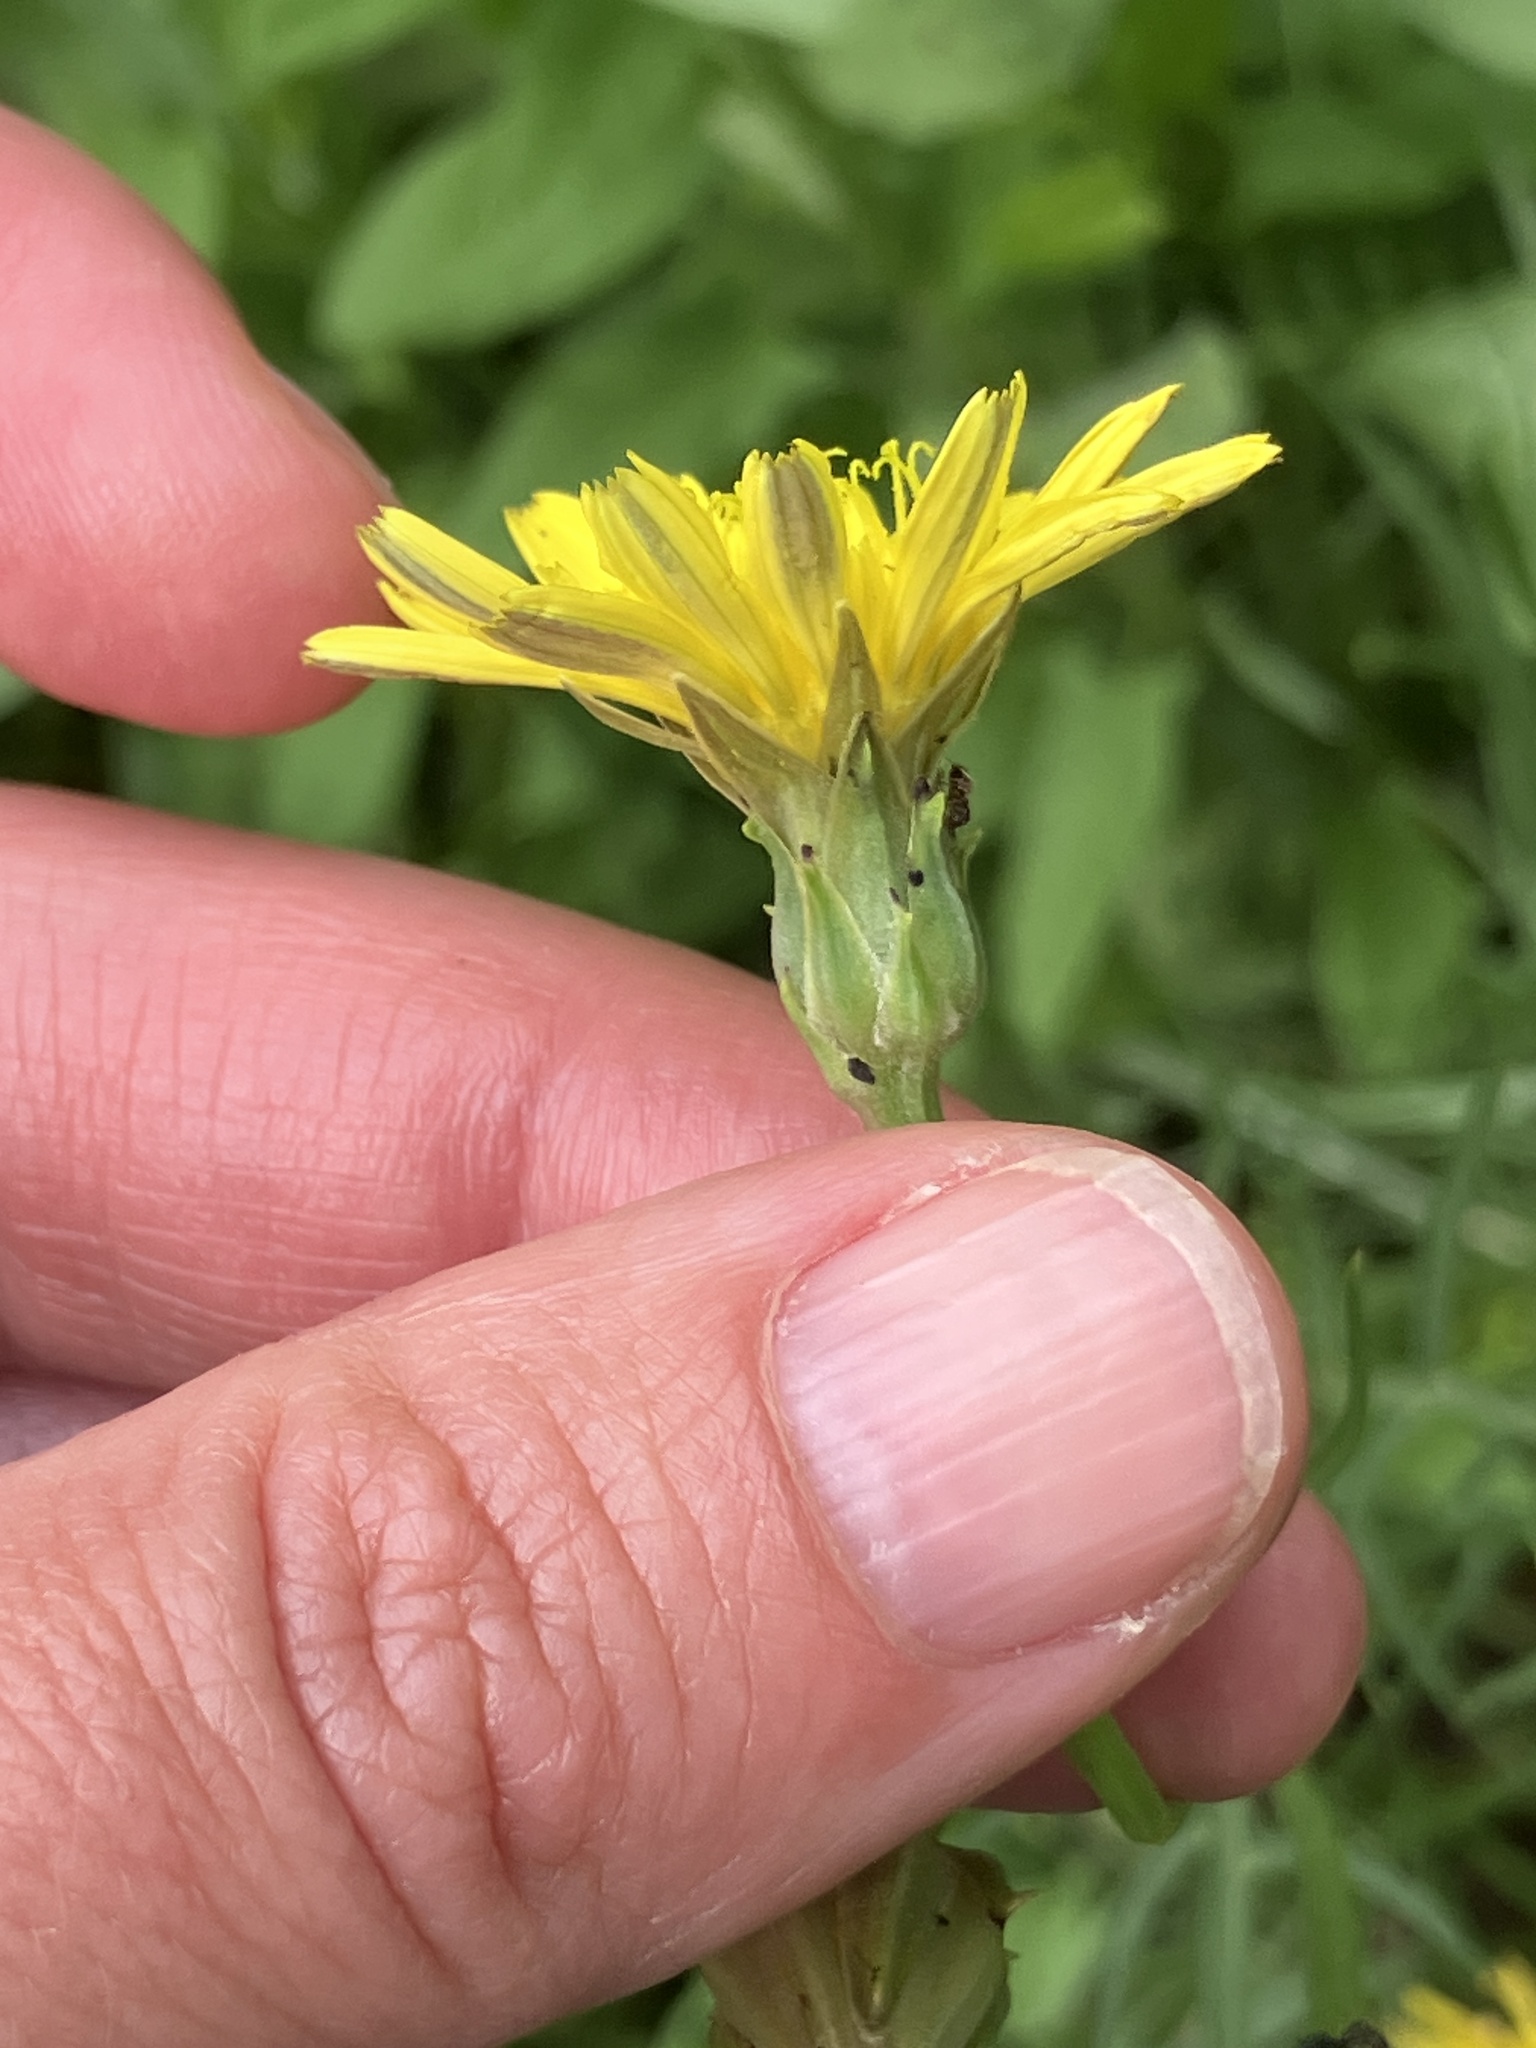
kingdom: Plantae
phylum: Tracheophyta
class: Magnoliopsida
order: Asterales
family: Asteraceae
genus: Scorzonera
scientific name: Scorzonera cana
